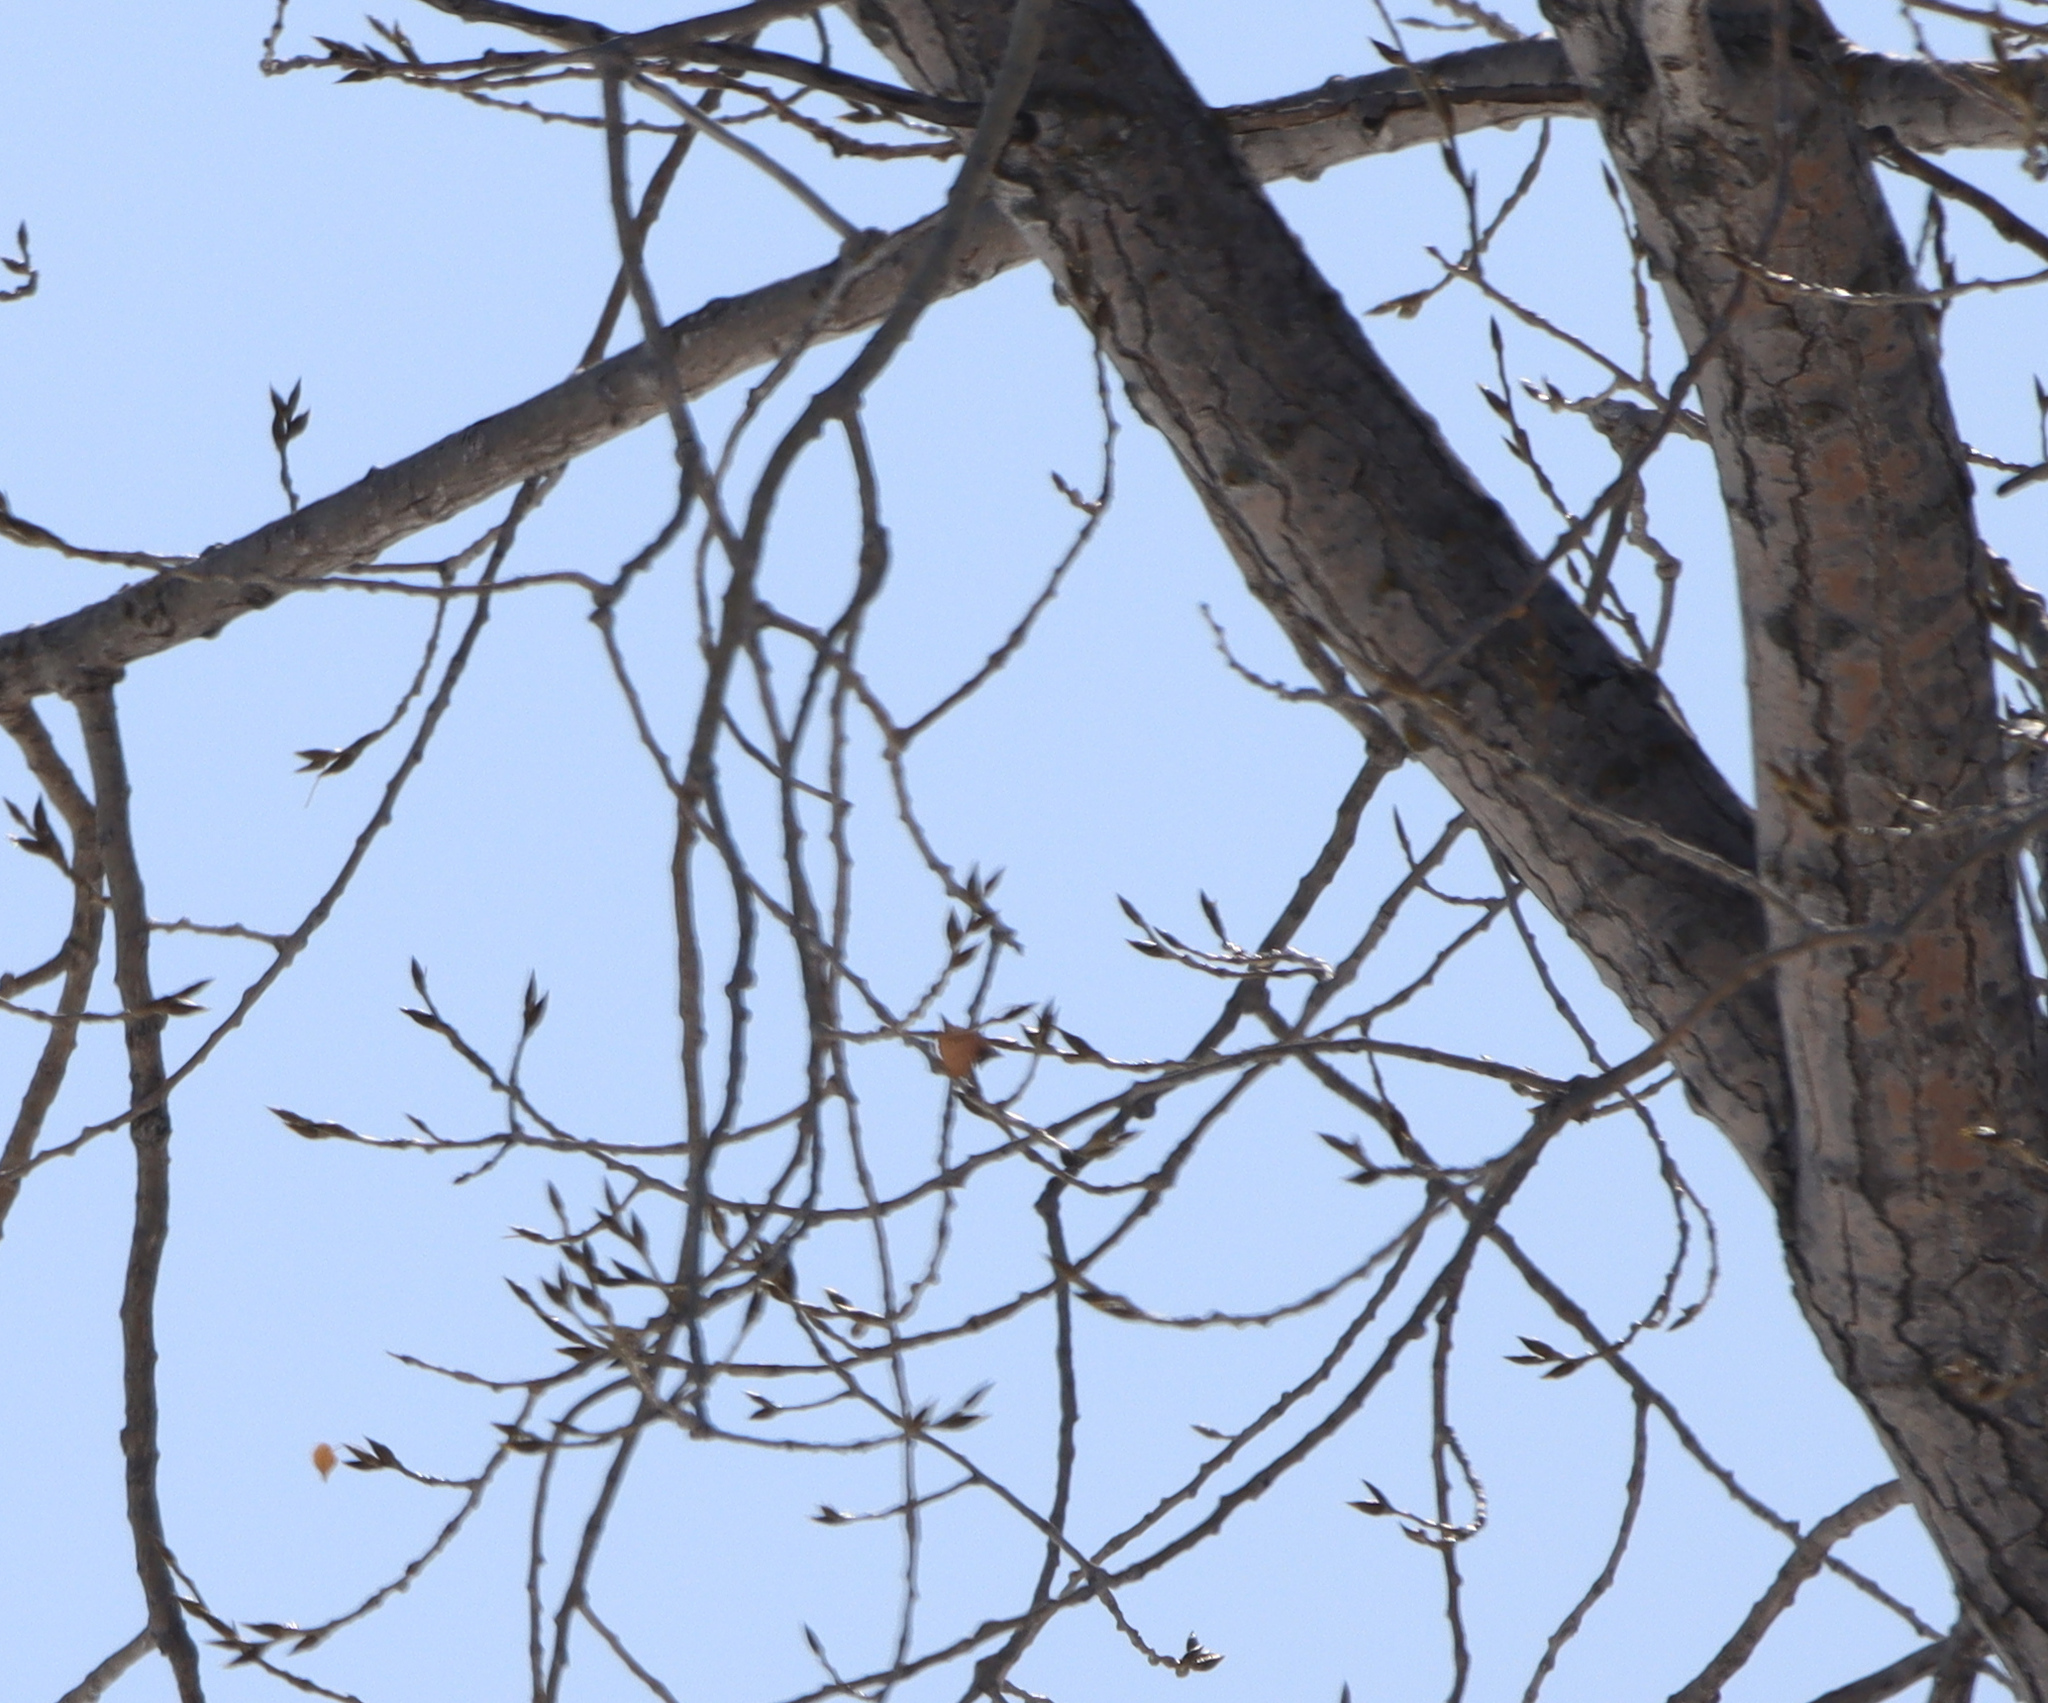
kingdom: Plantae
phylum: Tracheophyta
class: Magnoliopsida
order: Malpighiales
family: Salicaceae
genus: Populus
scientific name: Populus balsamifera
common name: Balsam poplar
